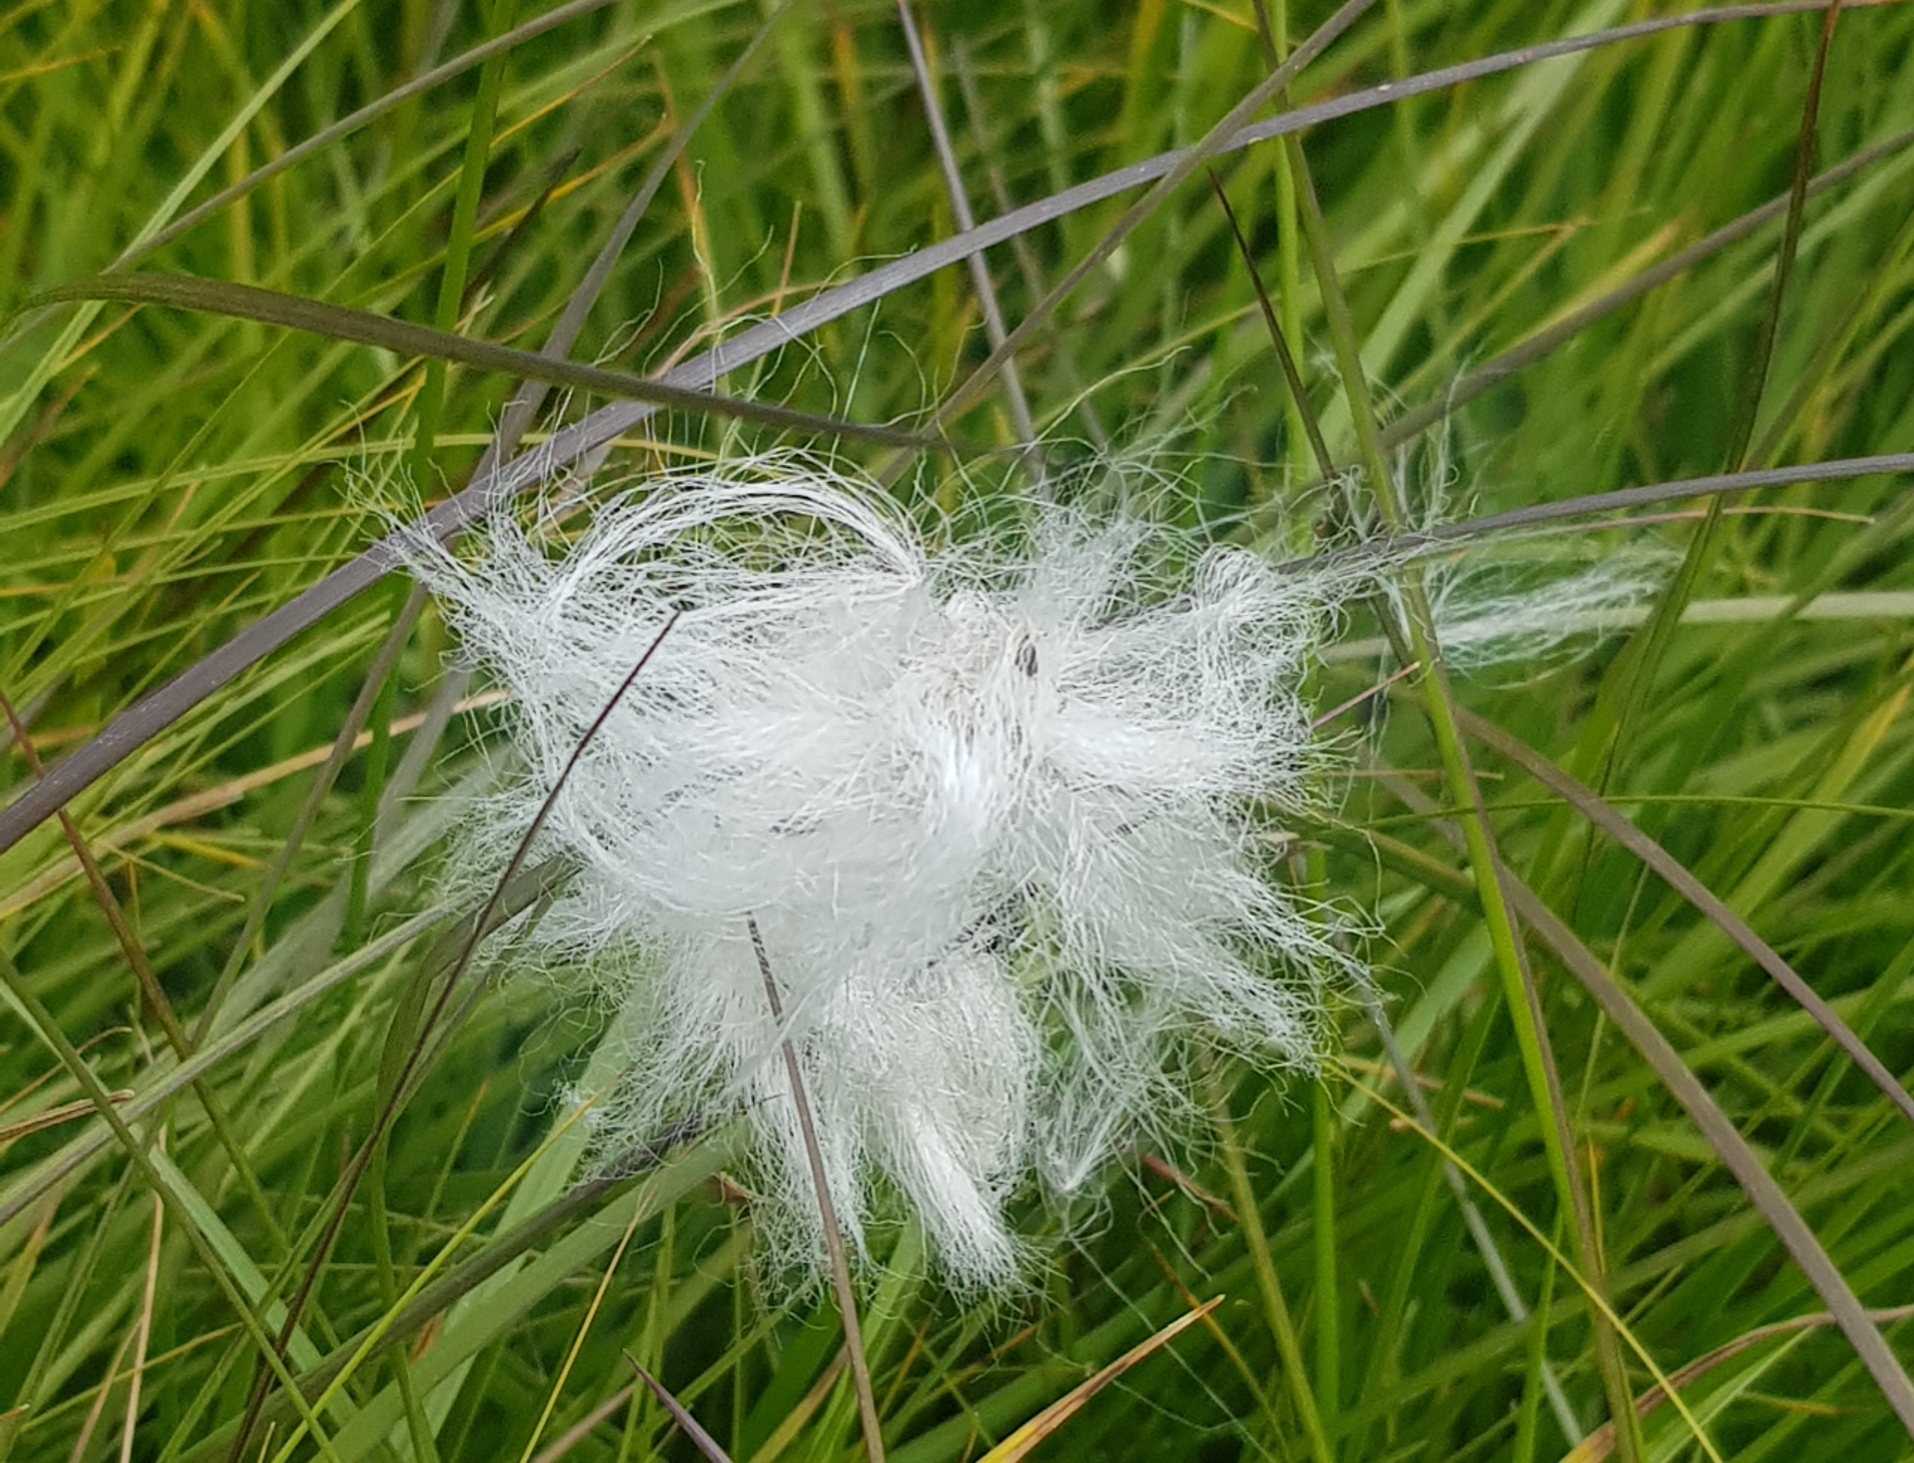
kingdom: Plantae
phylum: Tracheophyta
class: Liliopsida
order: Poales
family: Cyperaceae
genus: Eriophorum
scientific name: Eriophorum angustifolium
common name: Common cottongrass
